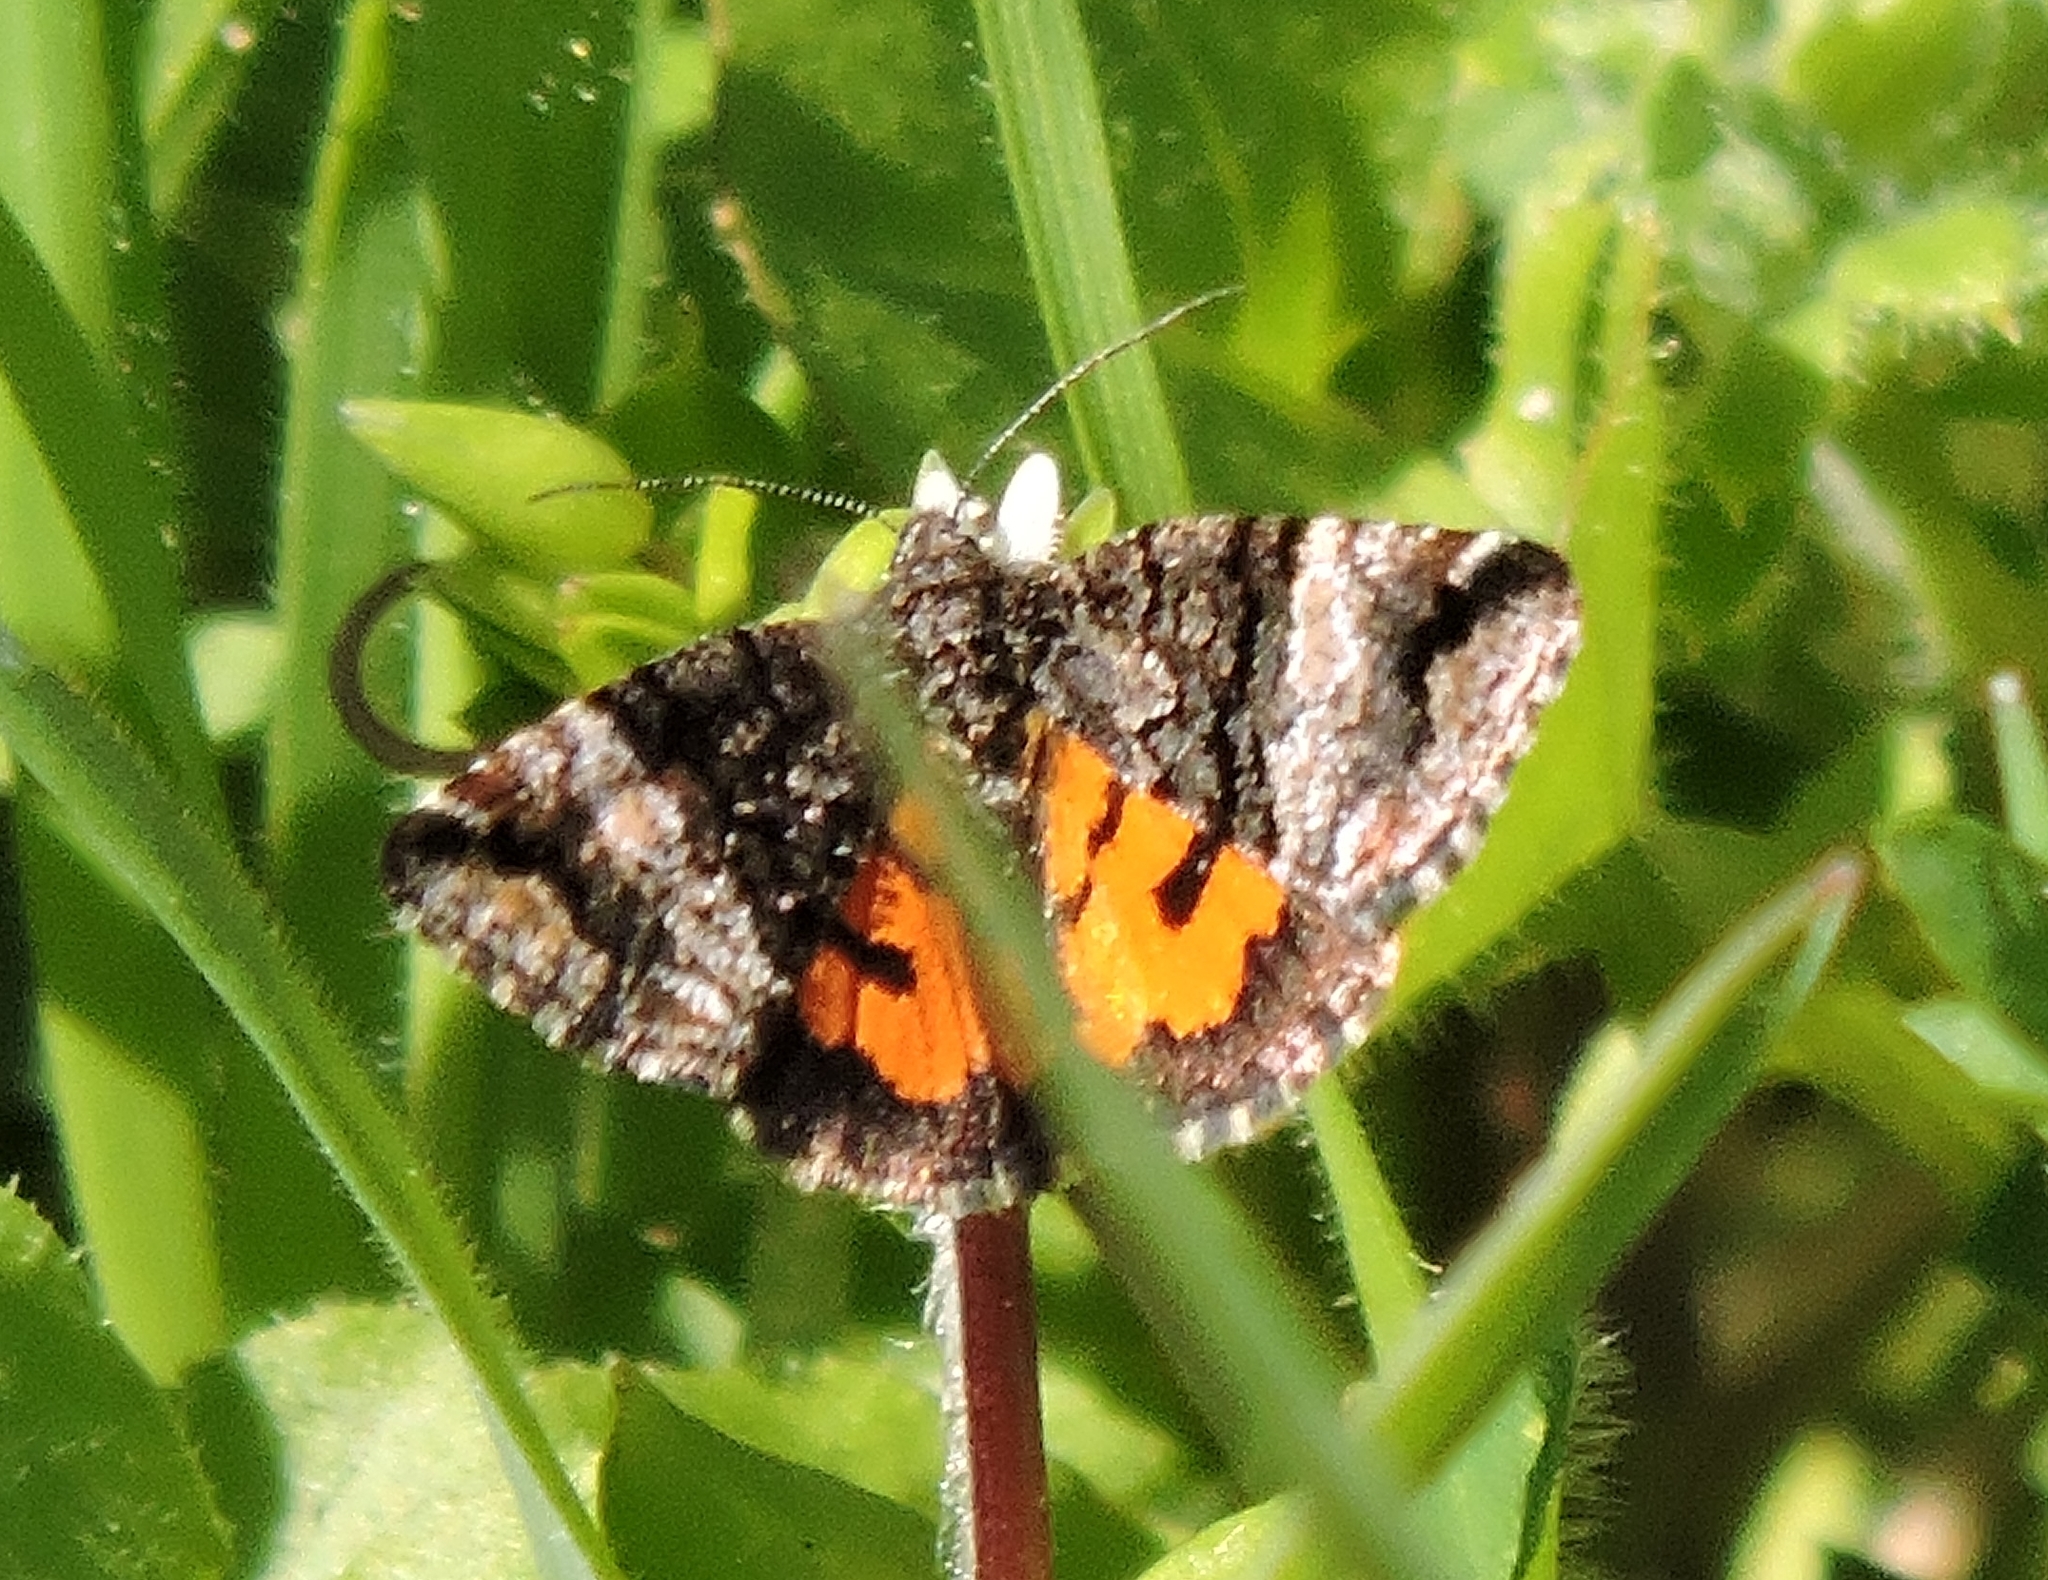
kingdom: Animalia
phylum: Arthropoda
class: Insecta
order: Lepidoptera
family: Noctuidae
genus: Annaphila
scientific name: Annaphila decia
